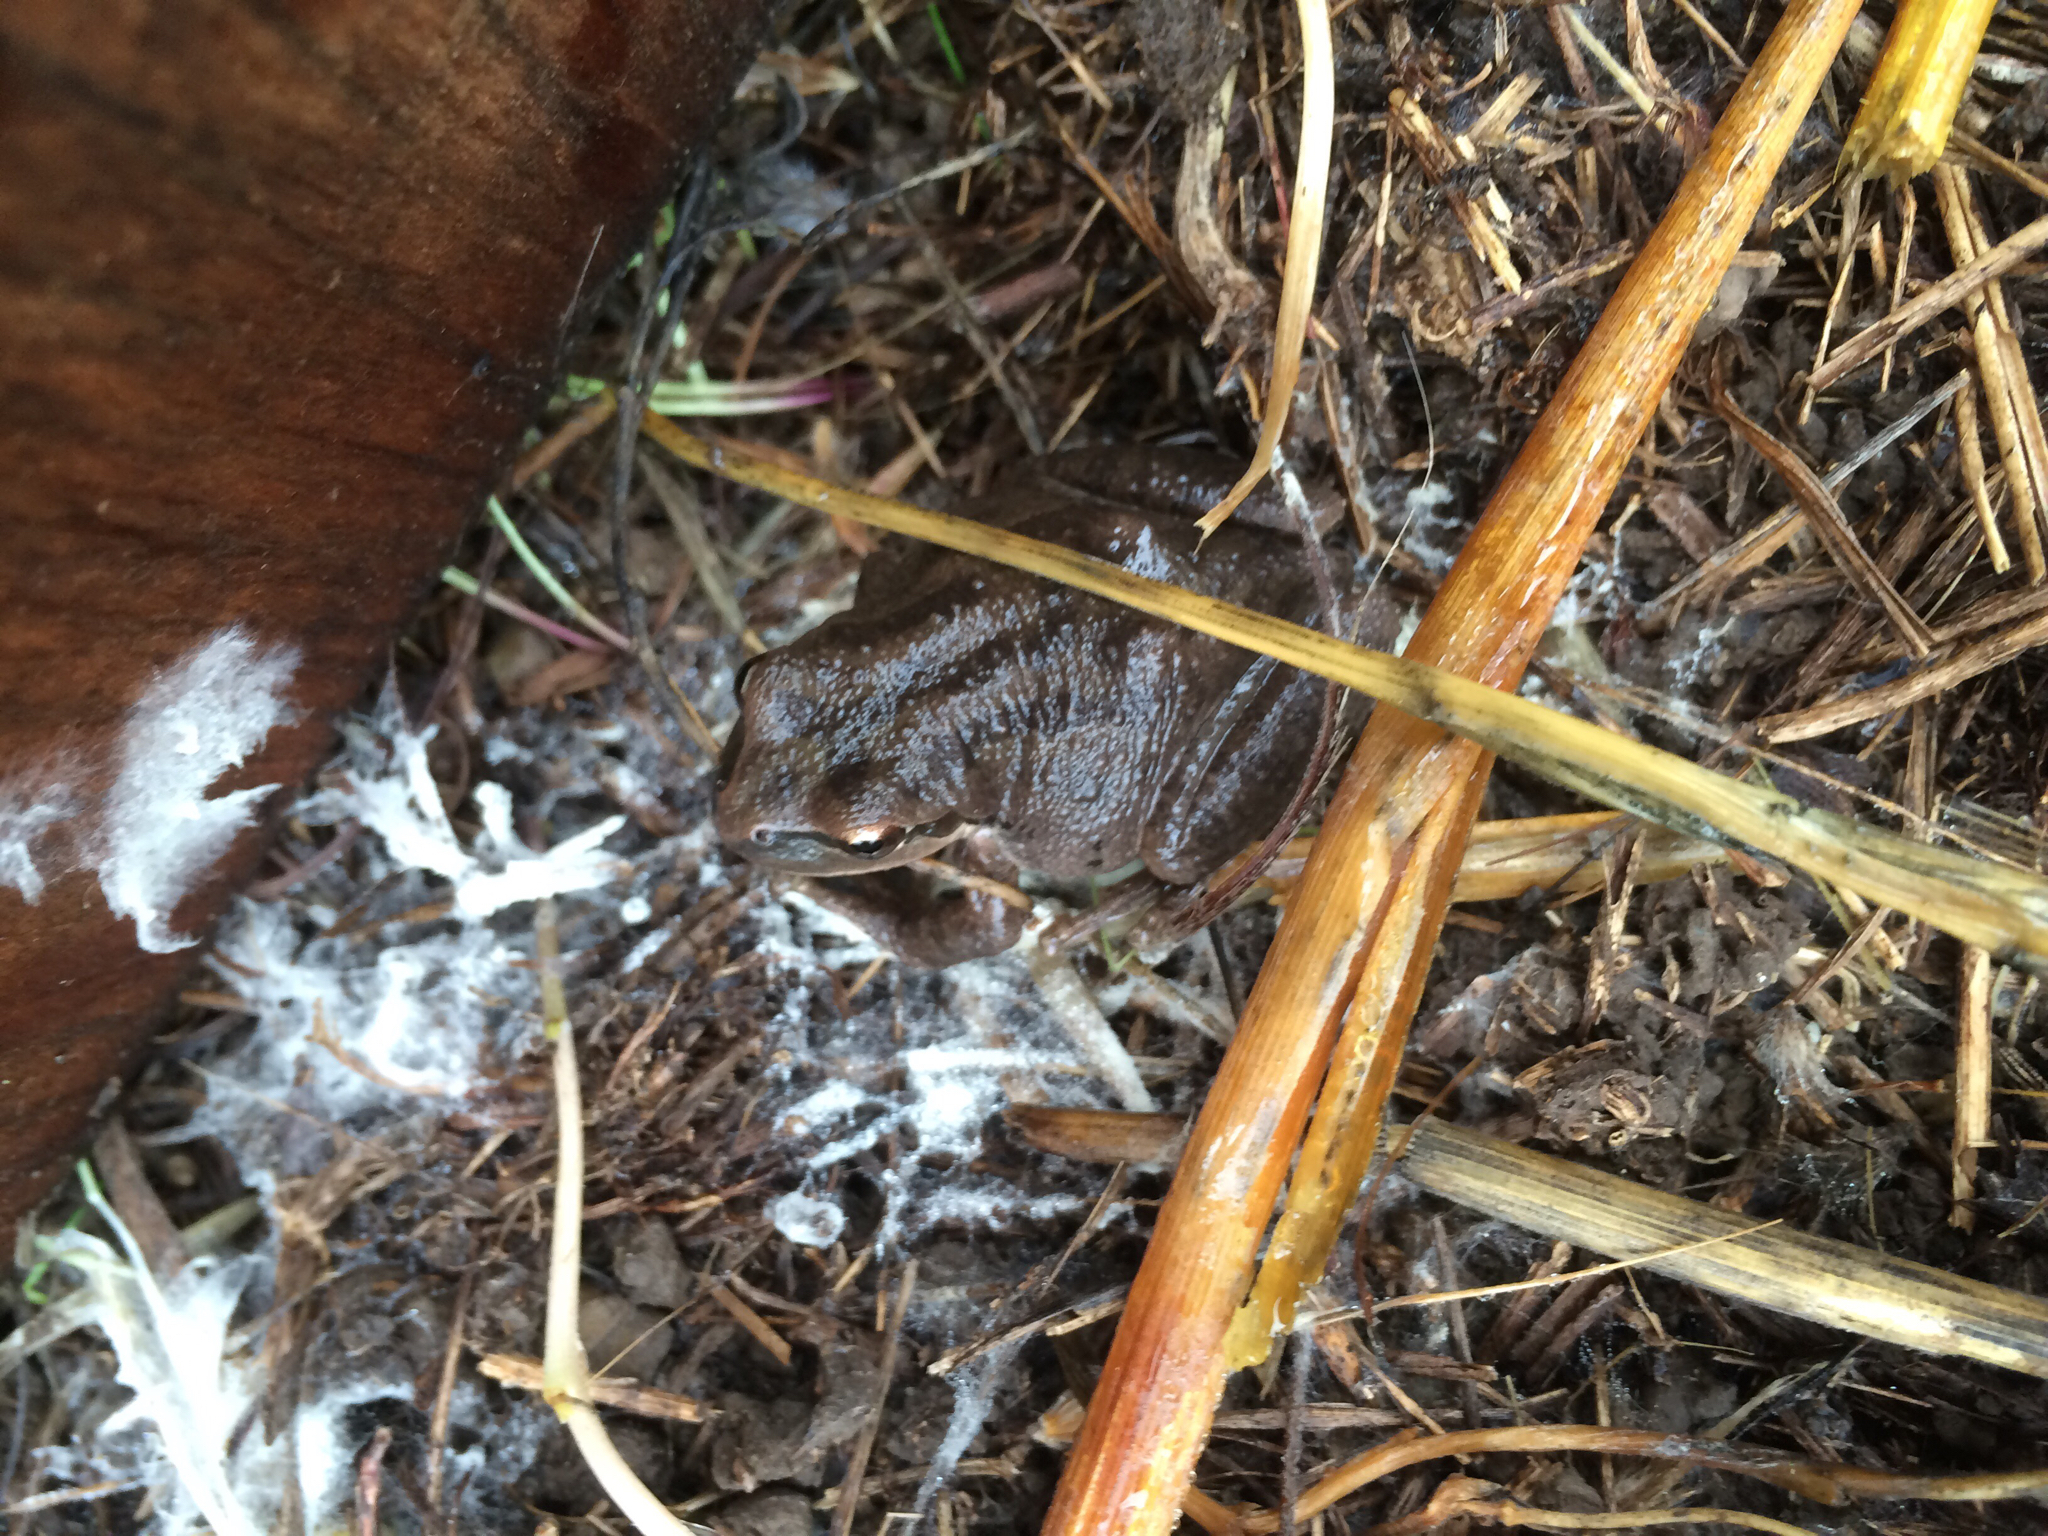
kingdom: Animalia
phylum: Chordata
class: Amphibia
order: Anura
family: Hylidae
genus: Pseudacris
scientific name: Pseudacris regilla
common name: Pacific chorus frog
